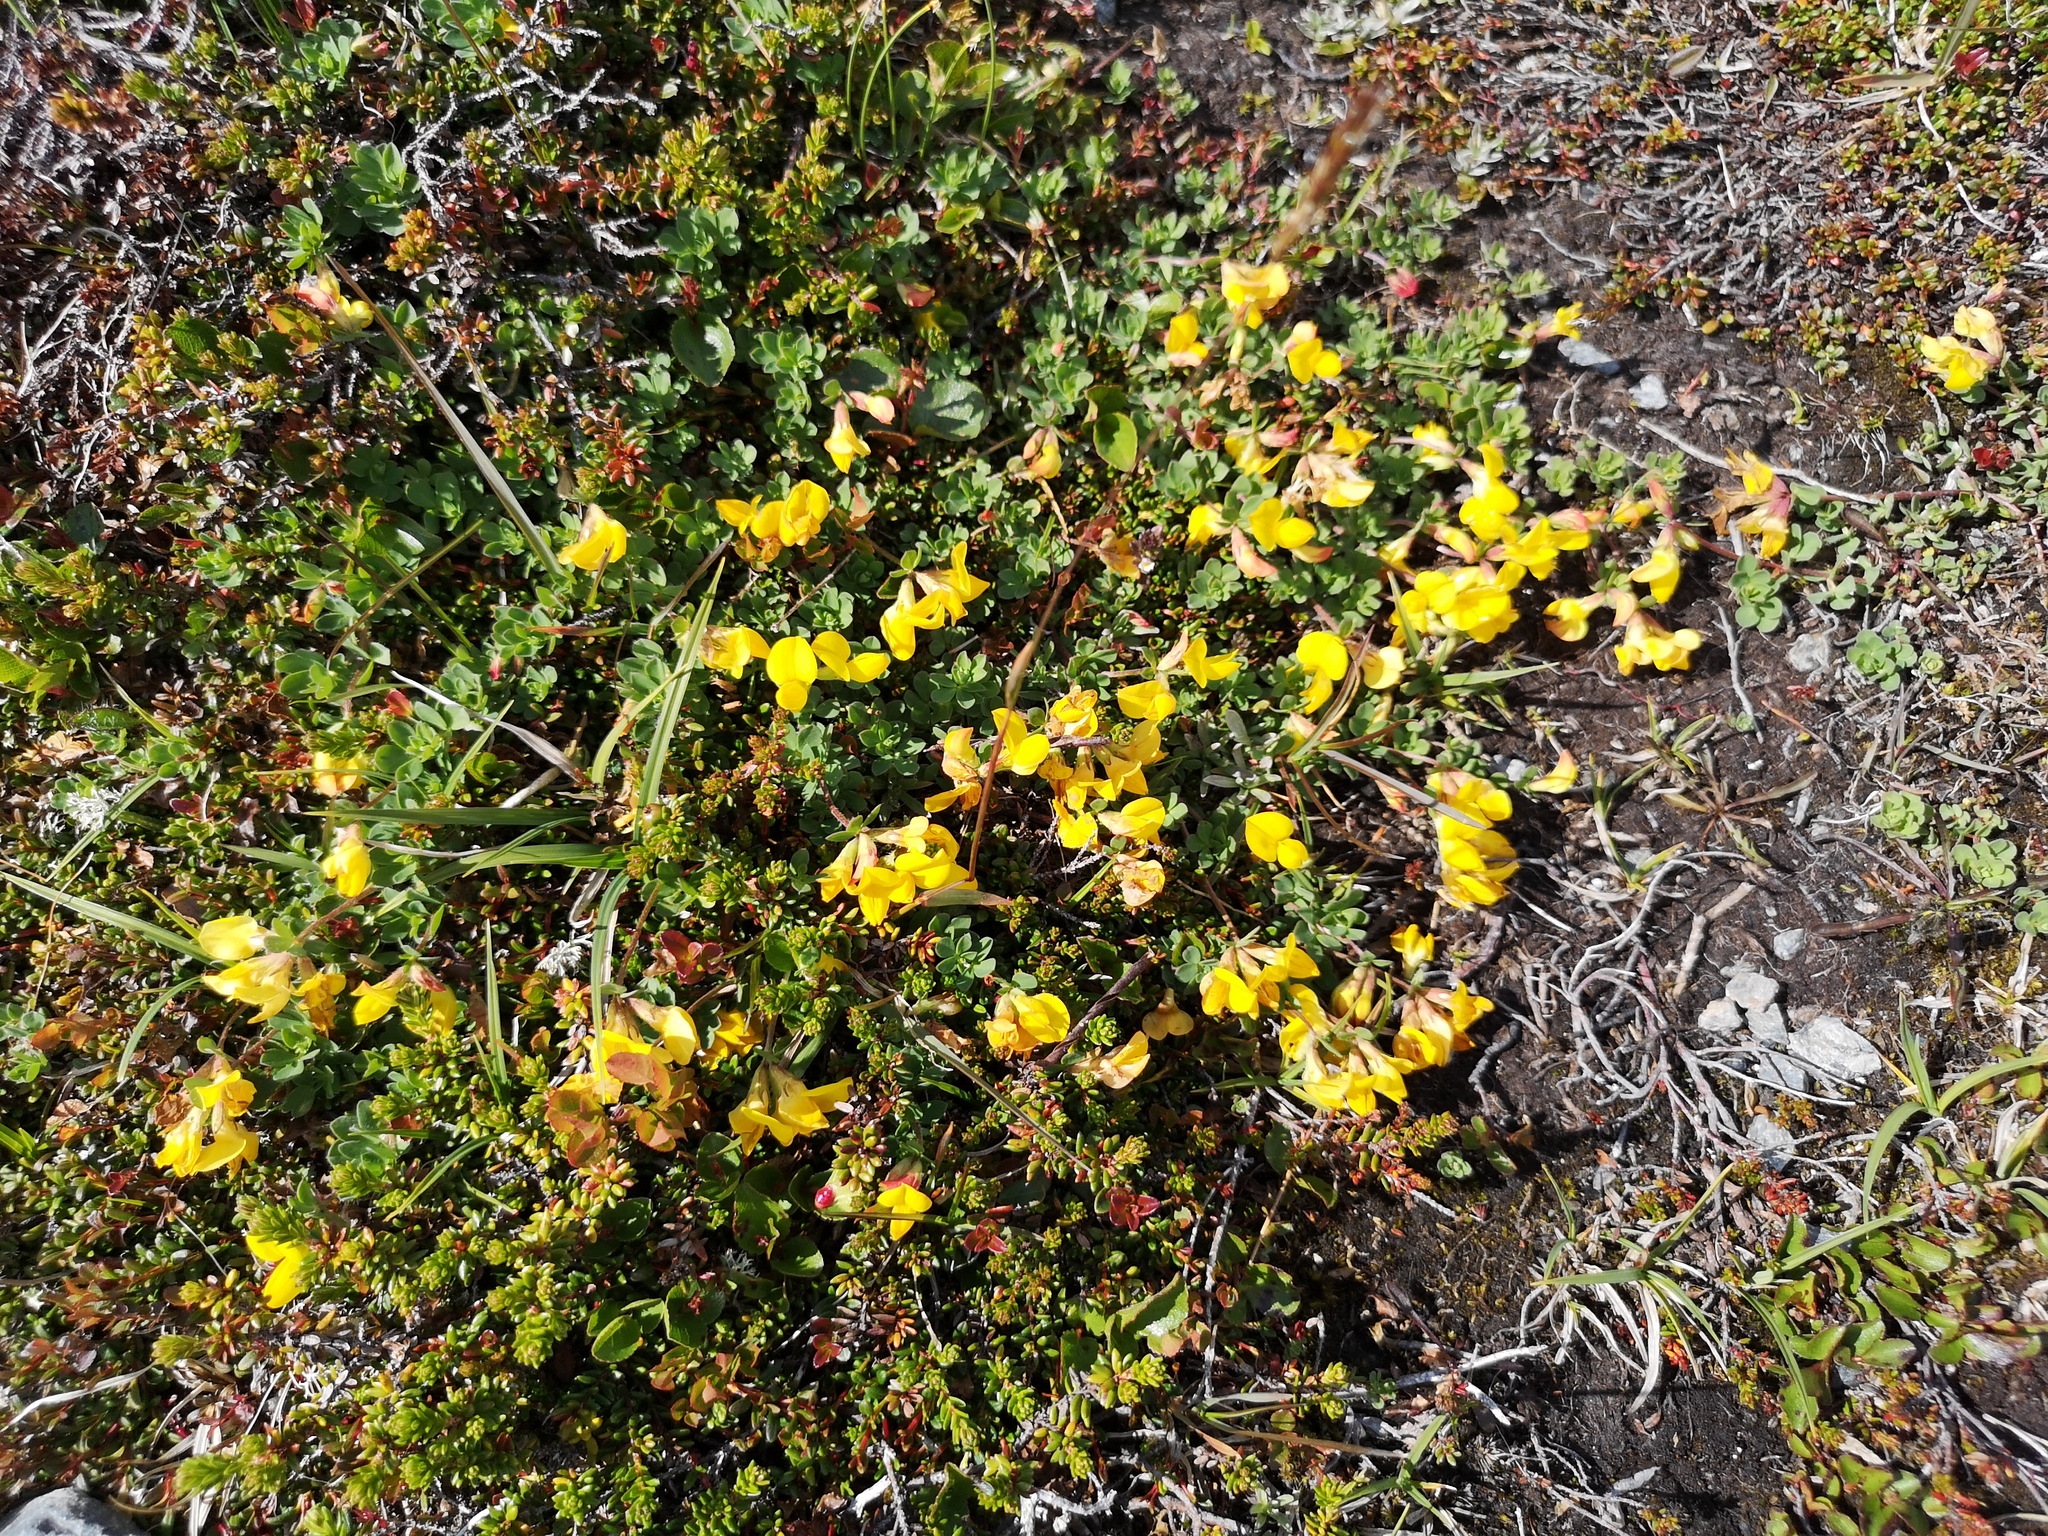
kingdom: Plantae
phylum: Tracheophyta
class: Magnoliopsida
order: Fabales
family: Fabaceae
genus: Lotus
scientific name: Lotus corniculatus
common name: Common bird's-foot-trefoil
